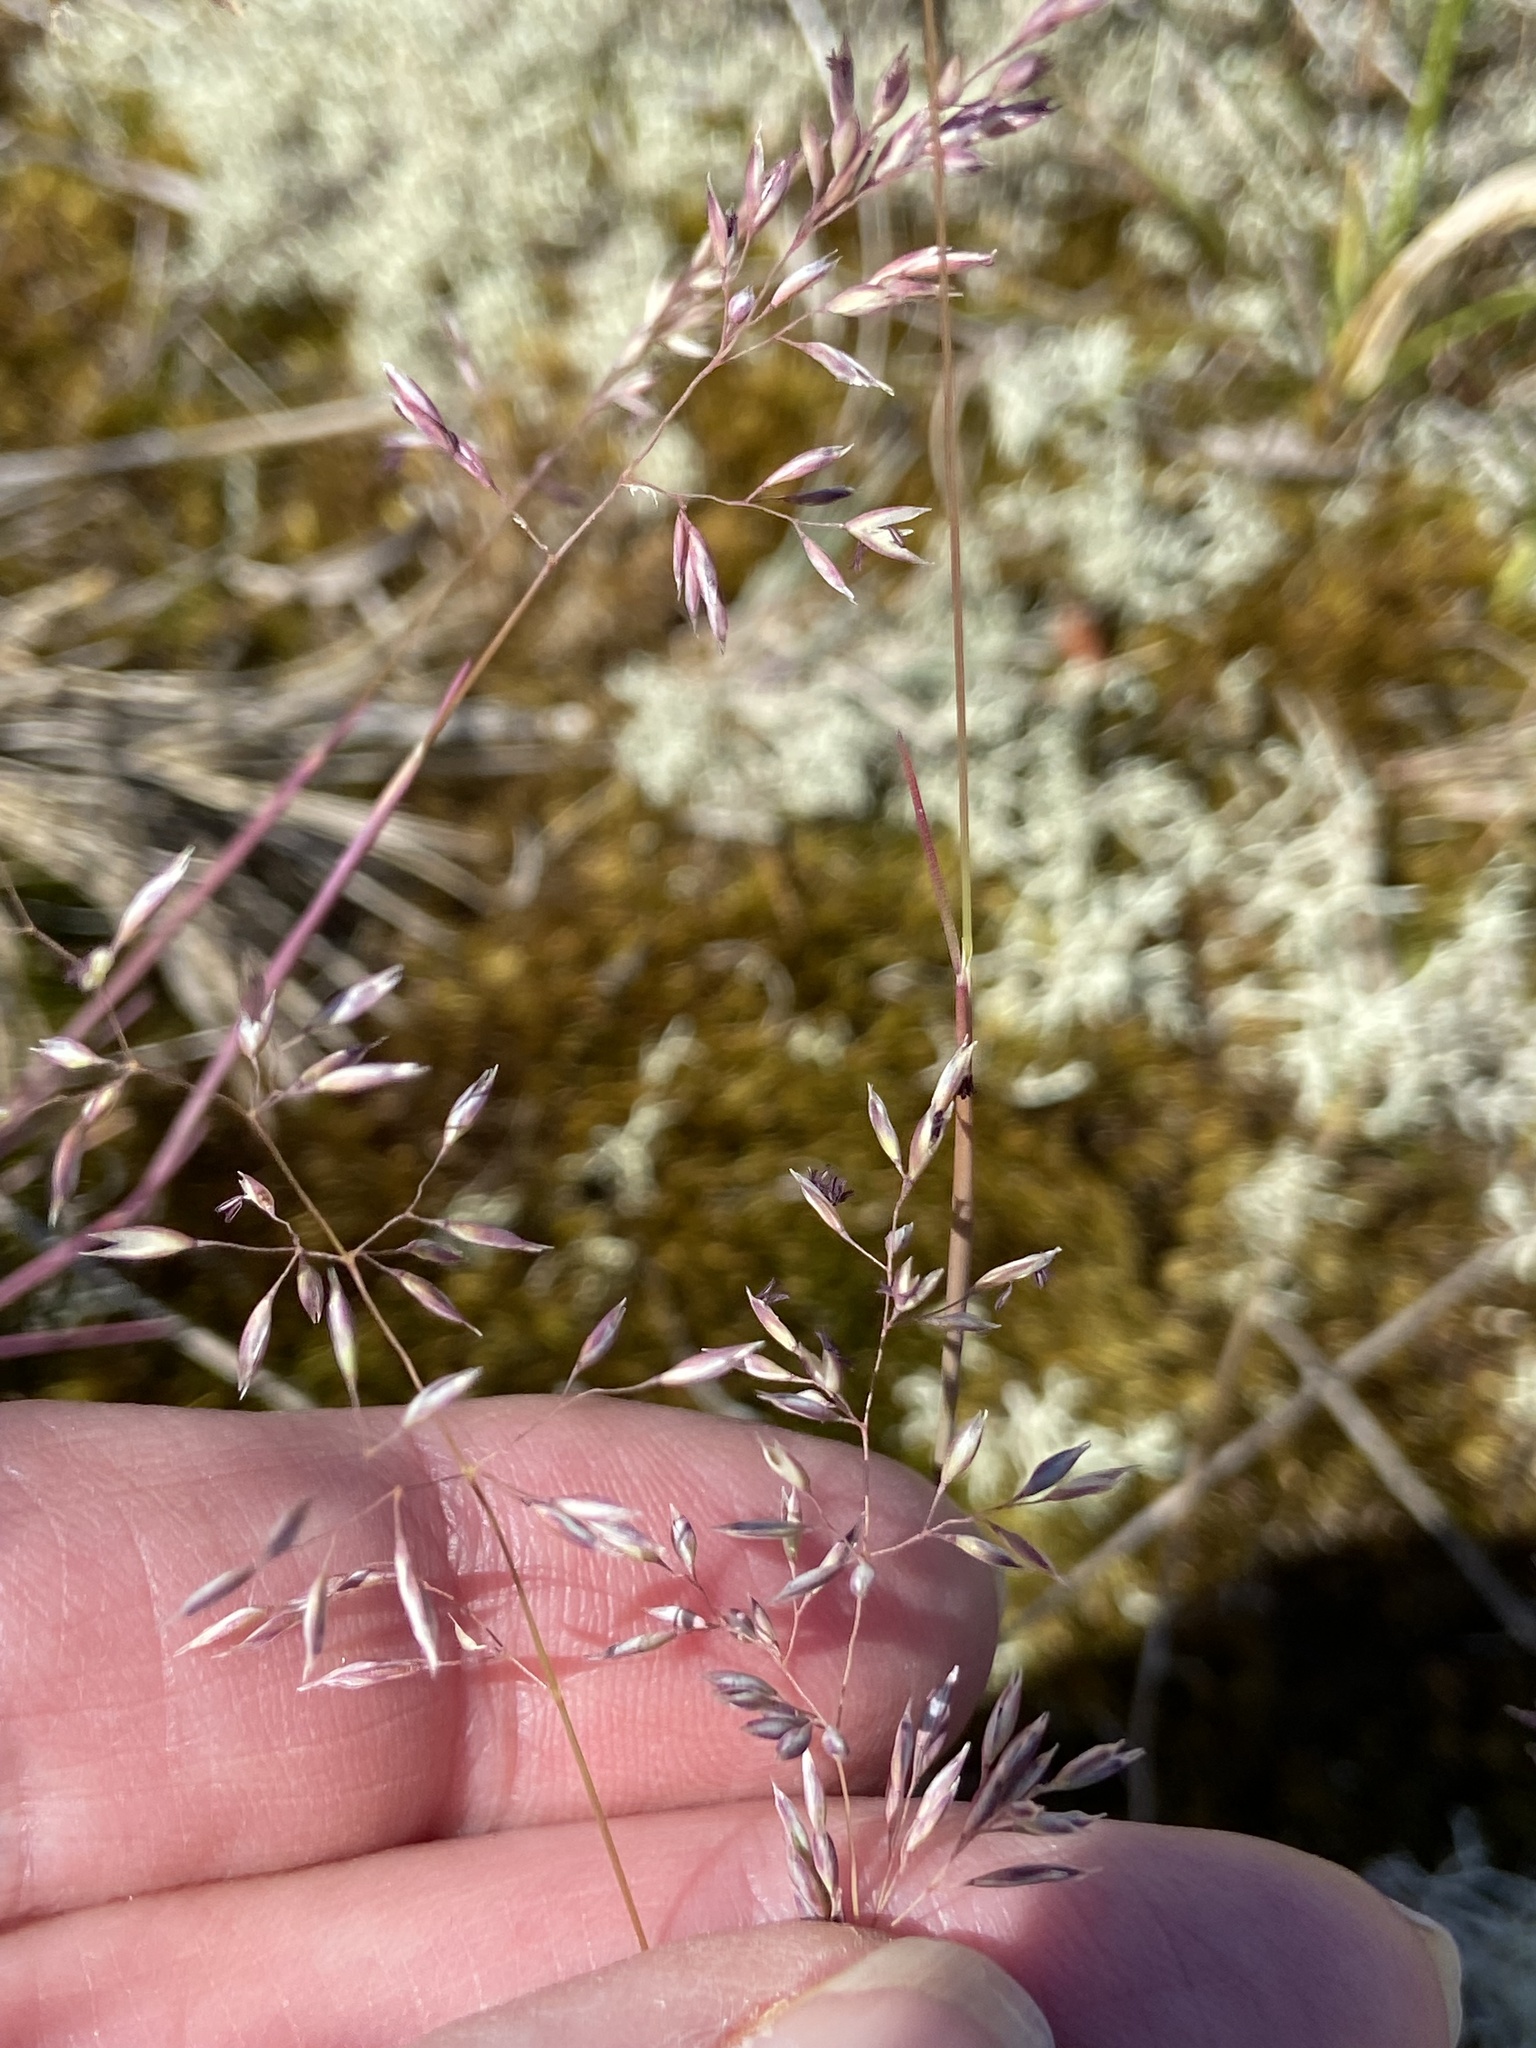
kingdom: Plantae
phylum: Tracheophyta
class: Liliopsida
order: Poales
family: Poaceae
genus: Corynephorus
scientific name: Corynephorus canescens
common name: Grey hair-grass
